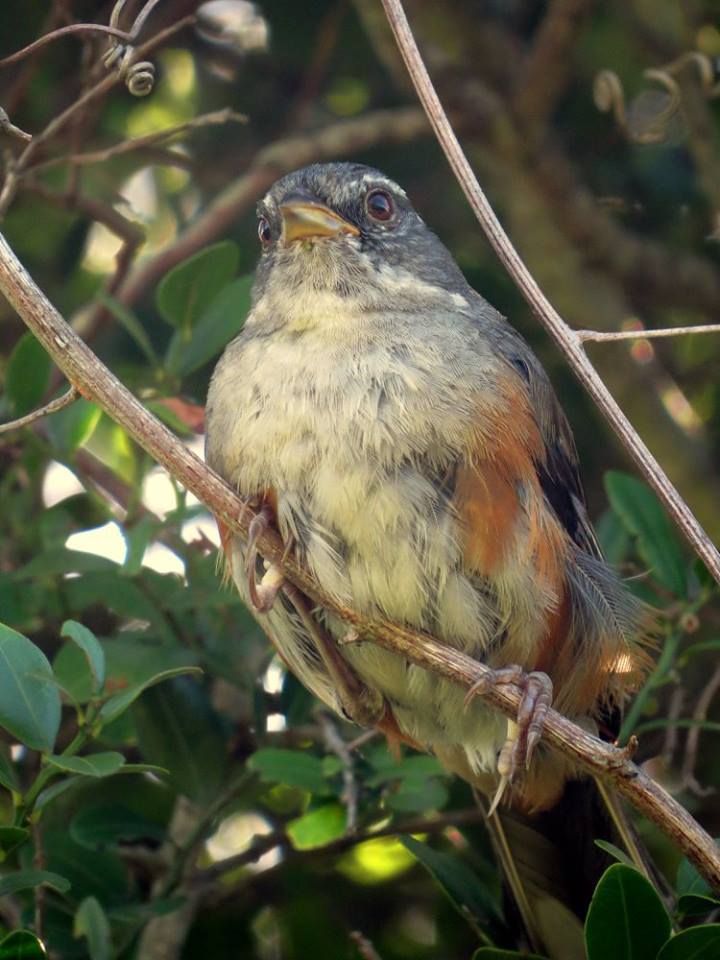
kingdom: Animalia
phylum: Chordata
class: Aves
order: Passeriformes
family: Thraupidae
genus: Microspingus
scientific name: Microspingus cabanisi
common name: Gray-throated warbling-finch
